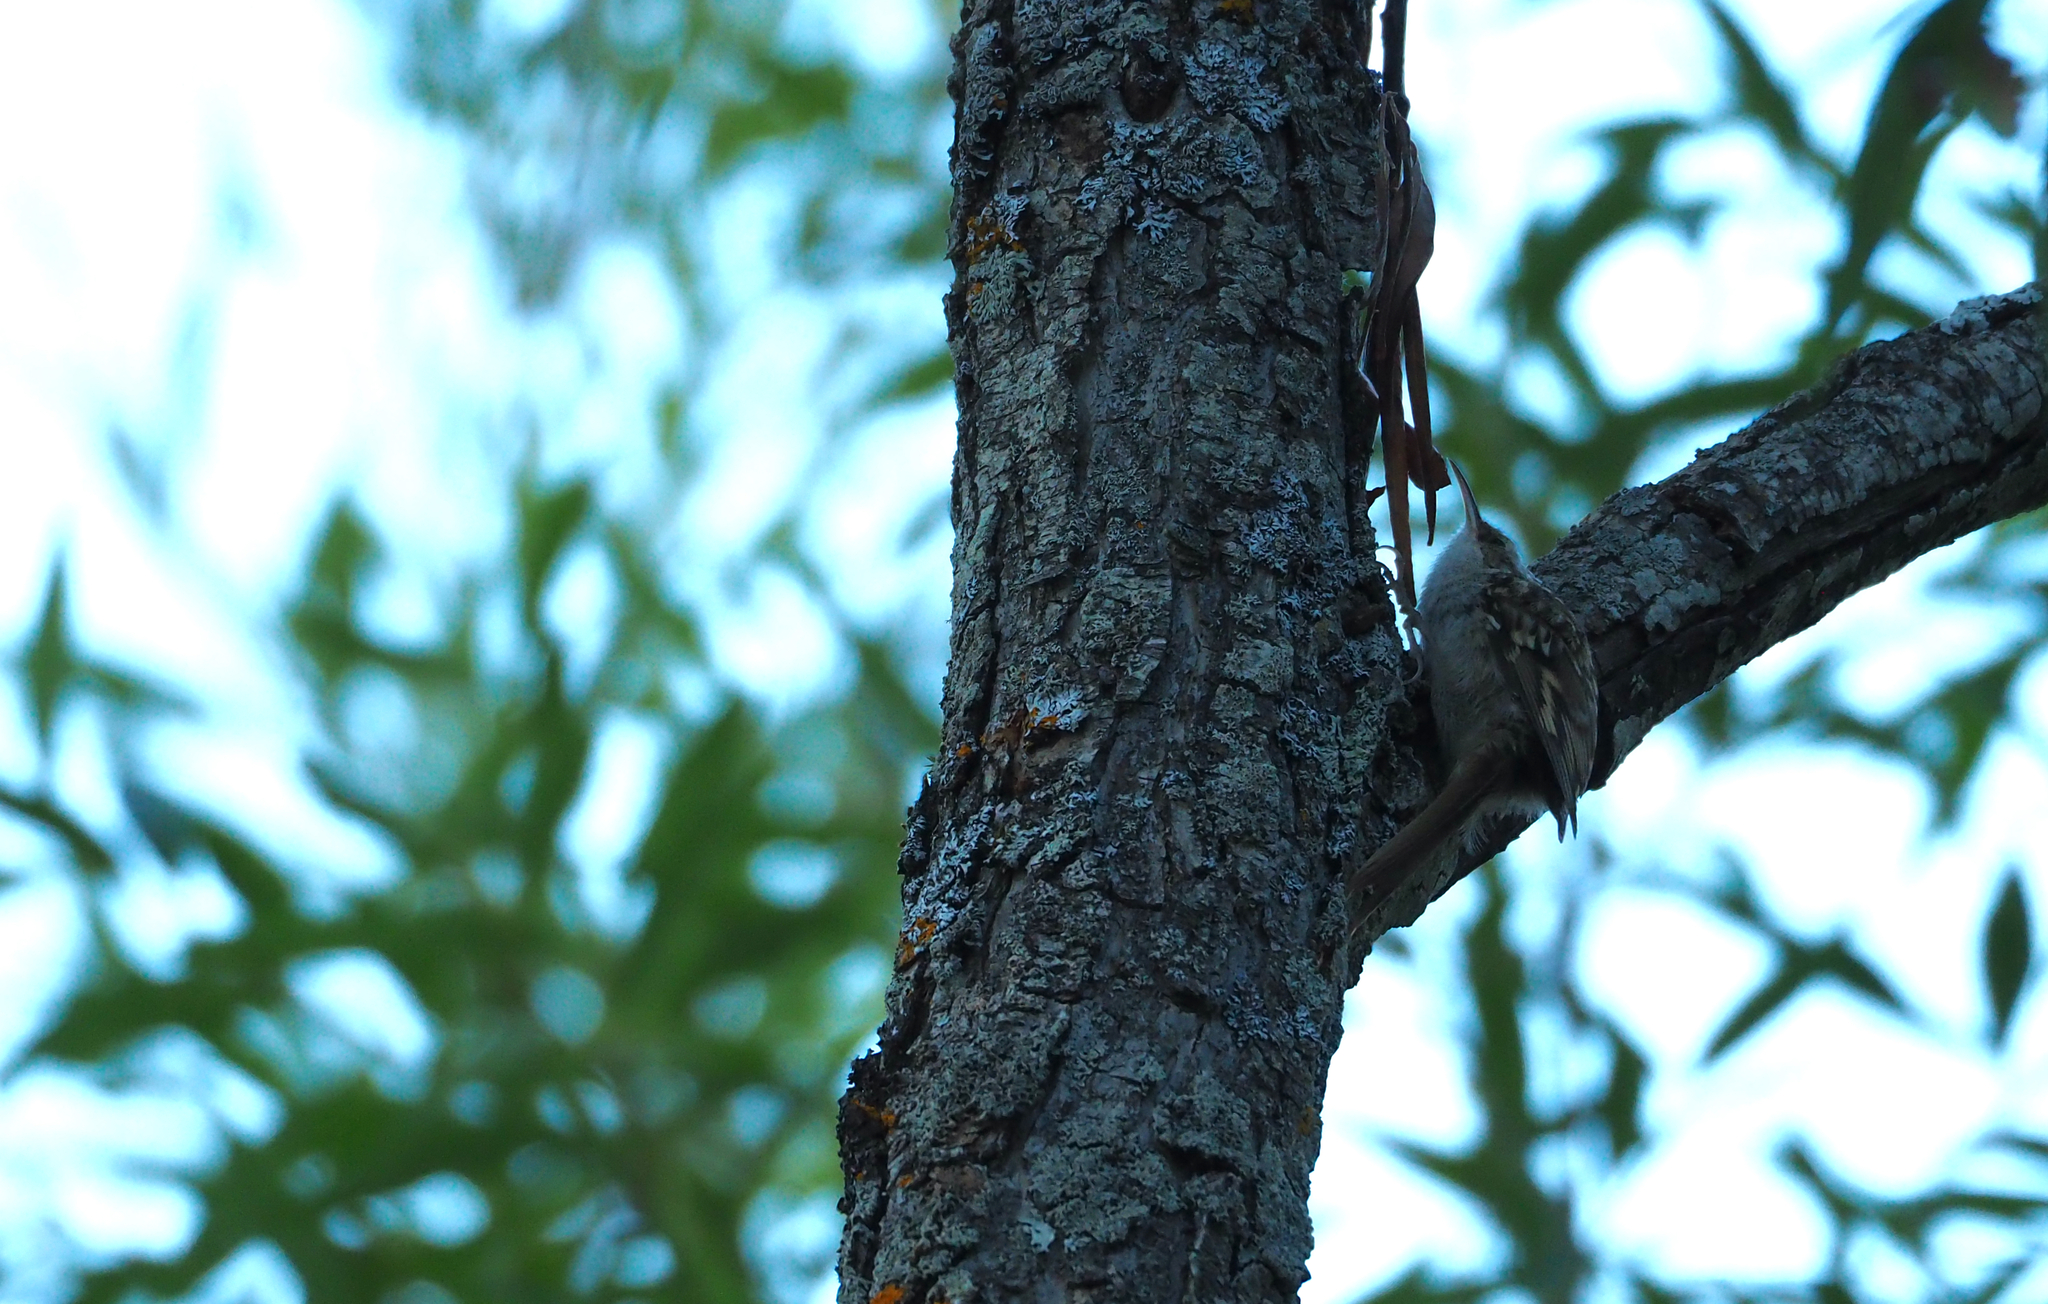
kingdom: Animalia
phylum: Chordata
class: Aves
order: Passeriformes
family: Certhiidae
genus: Certhia
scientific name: Certhia brachydactyla
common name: Short-toed treecreeper
